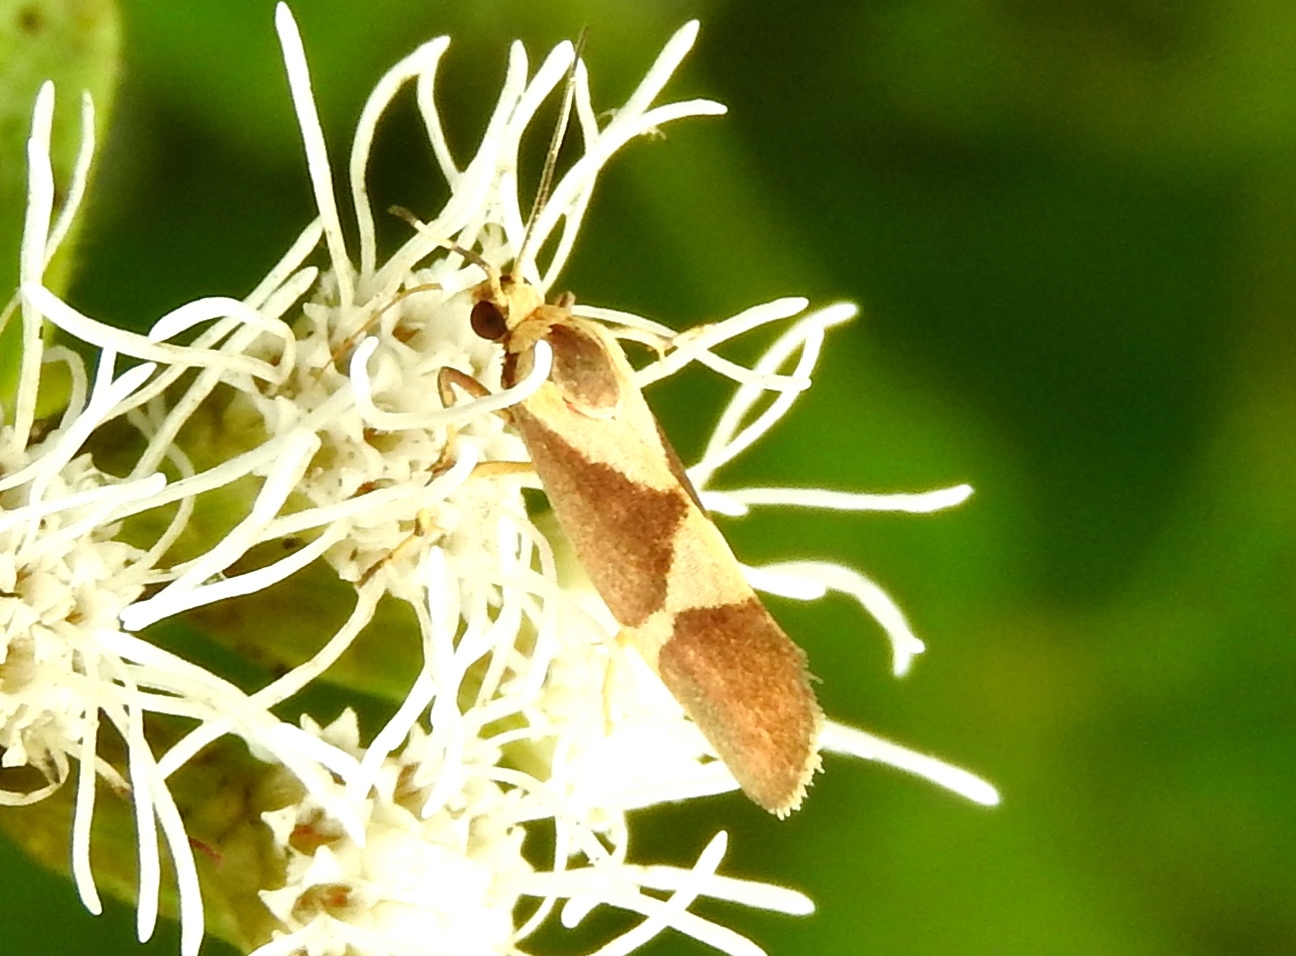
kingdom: Animalia
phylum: Arthropoda
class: Insecta
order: Lepidoptera
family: Erebidae
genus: Cisthene
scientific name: Cisthene
